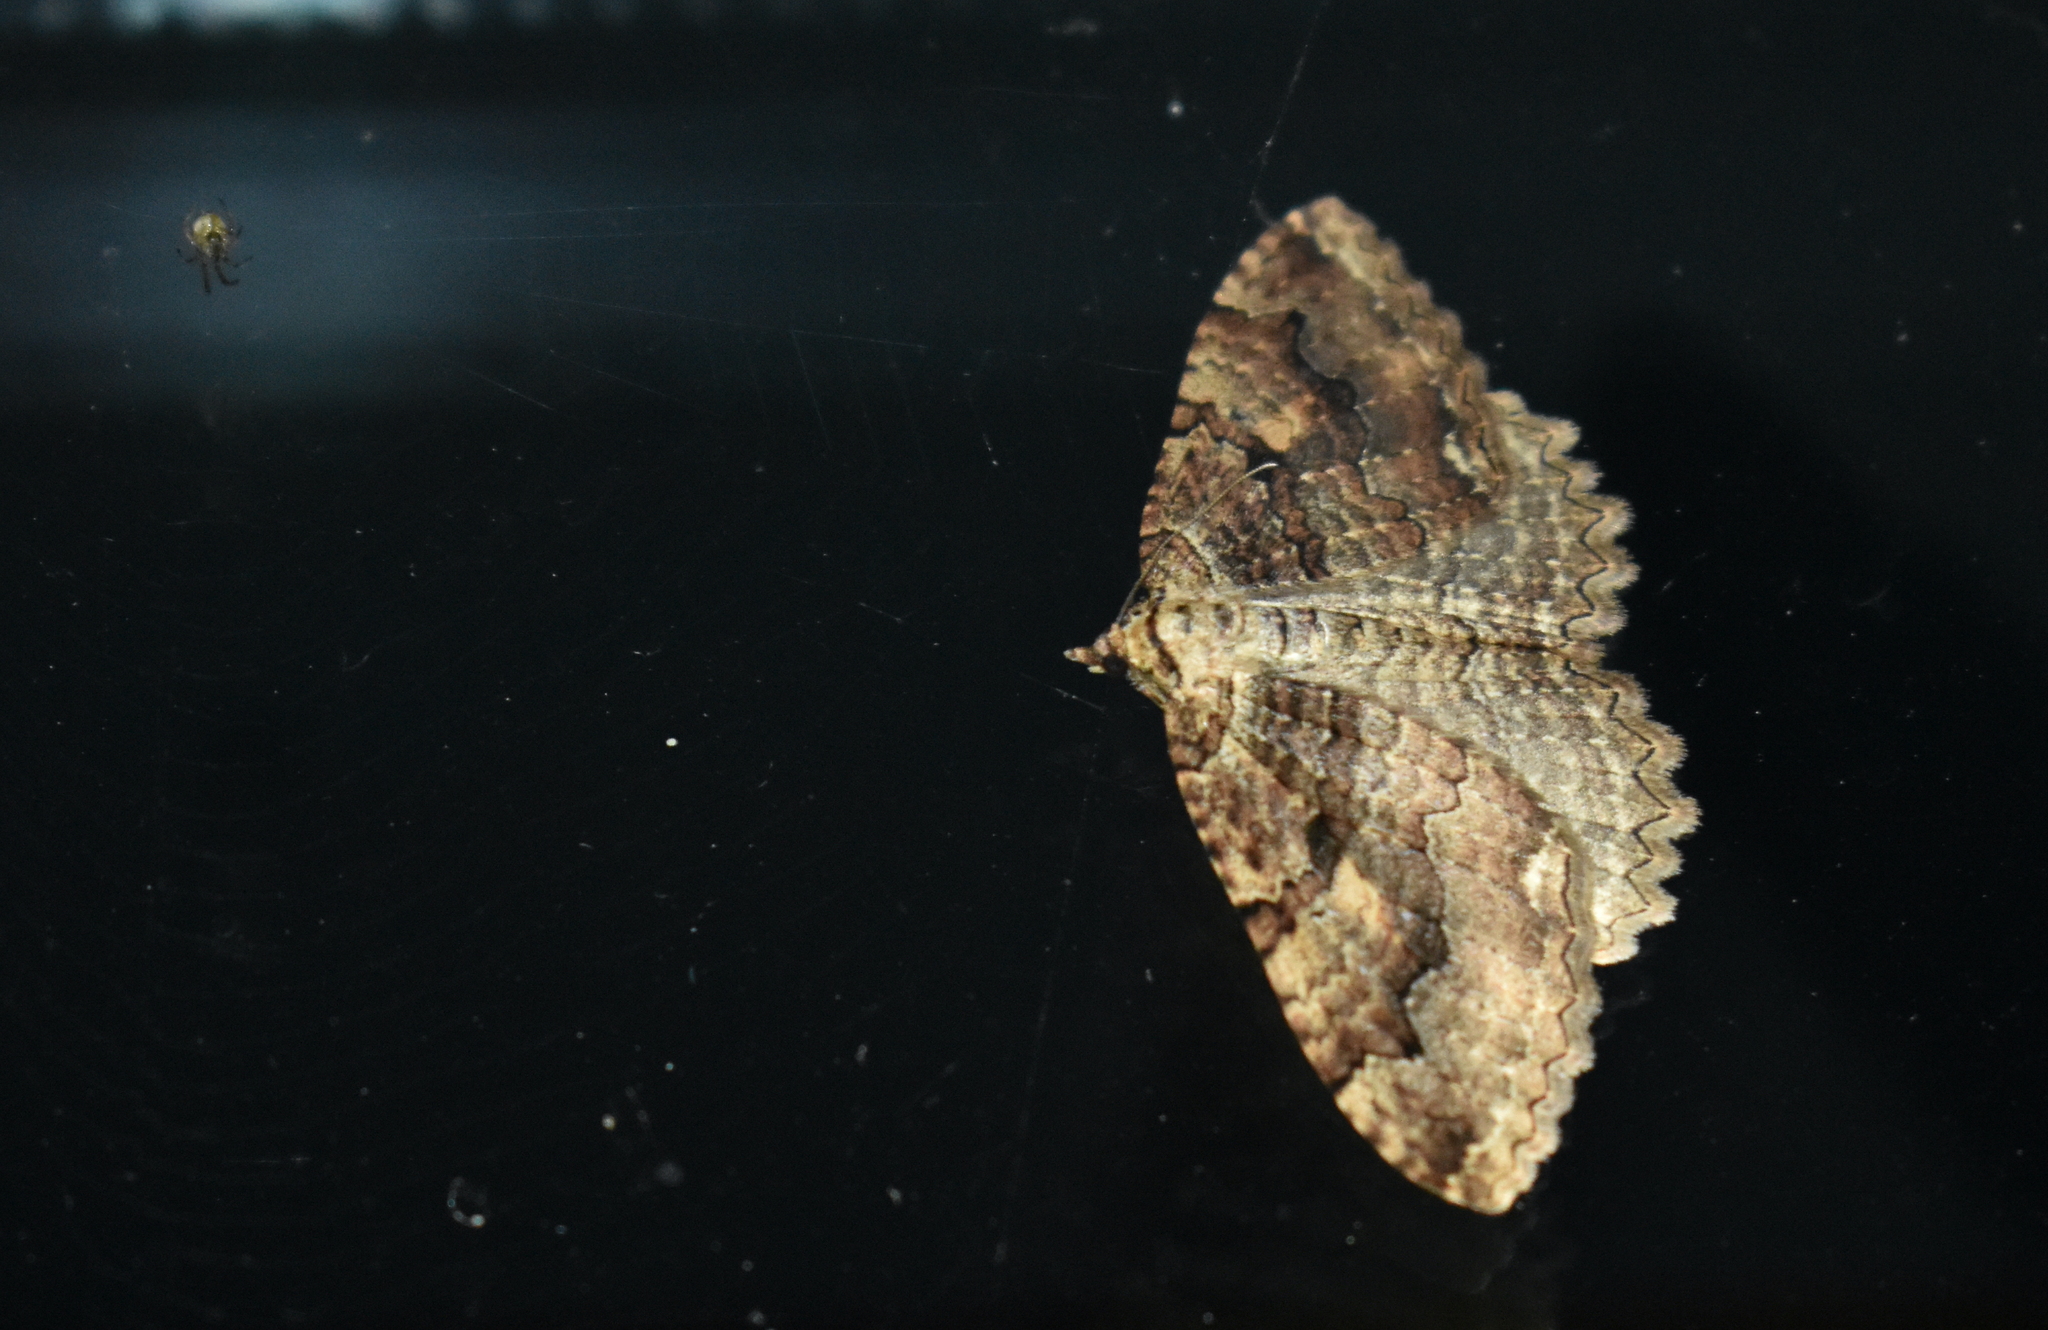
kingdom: Animalia
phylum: Arthropoda
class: Insecta
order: Lepidoptera
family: Geometridae
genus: Triphosa
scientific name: Triphosa haesitata
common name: Tissue moth
